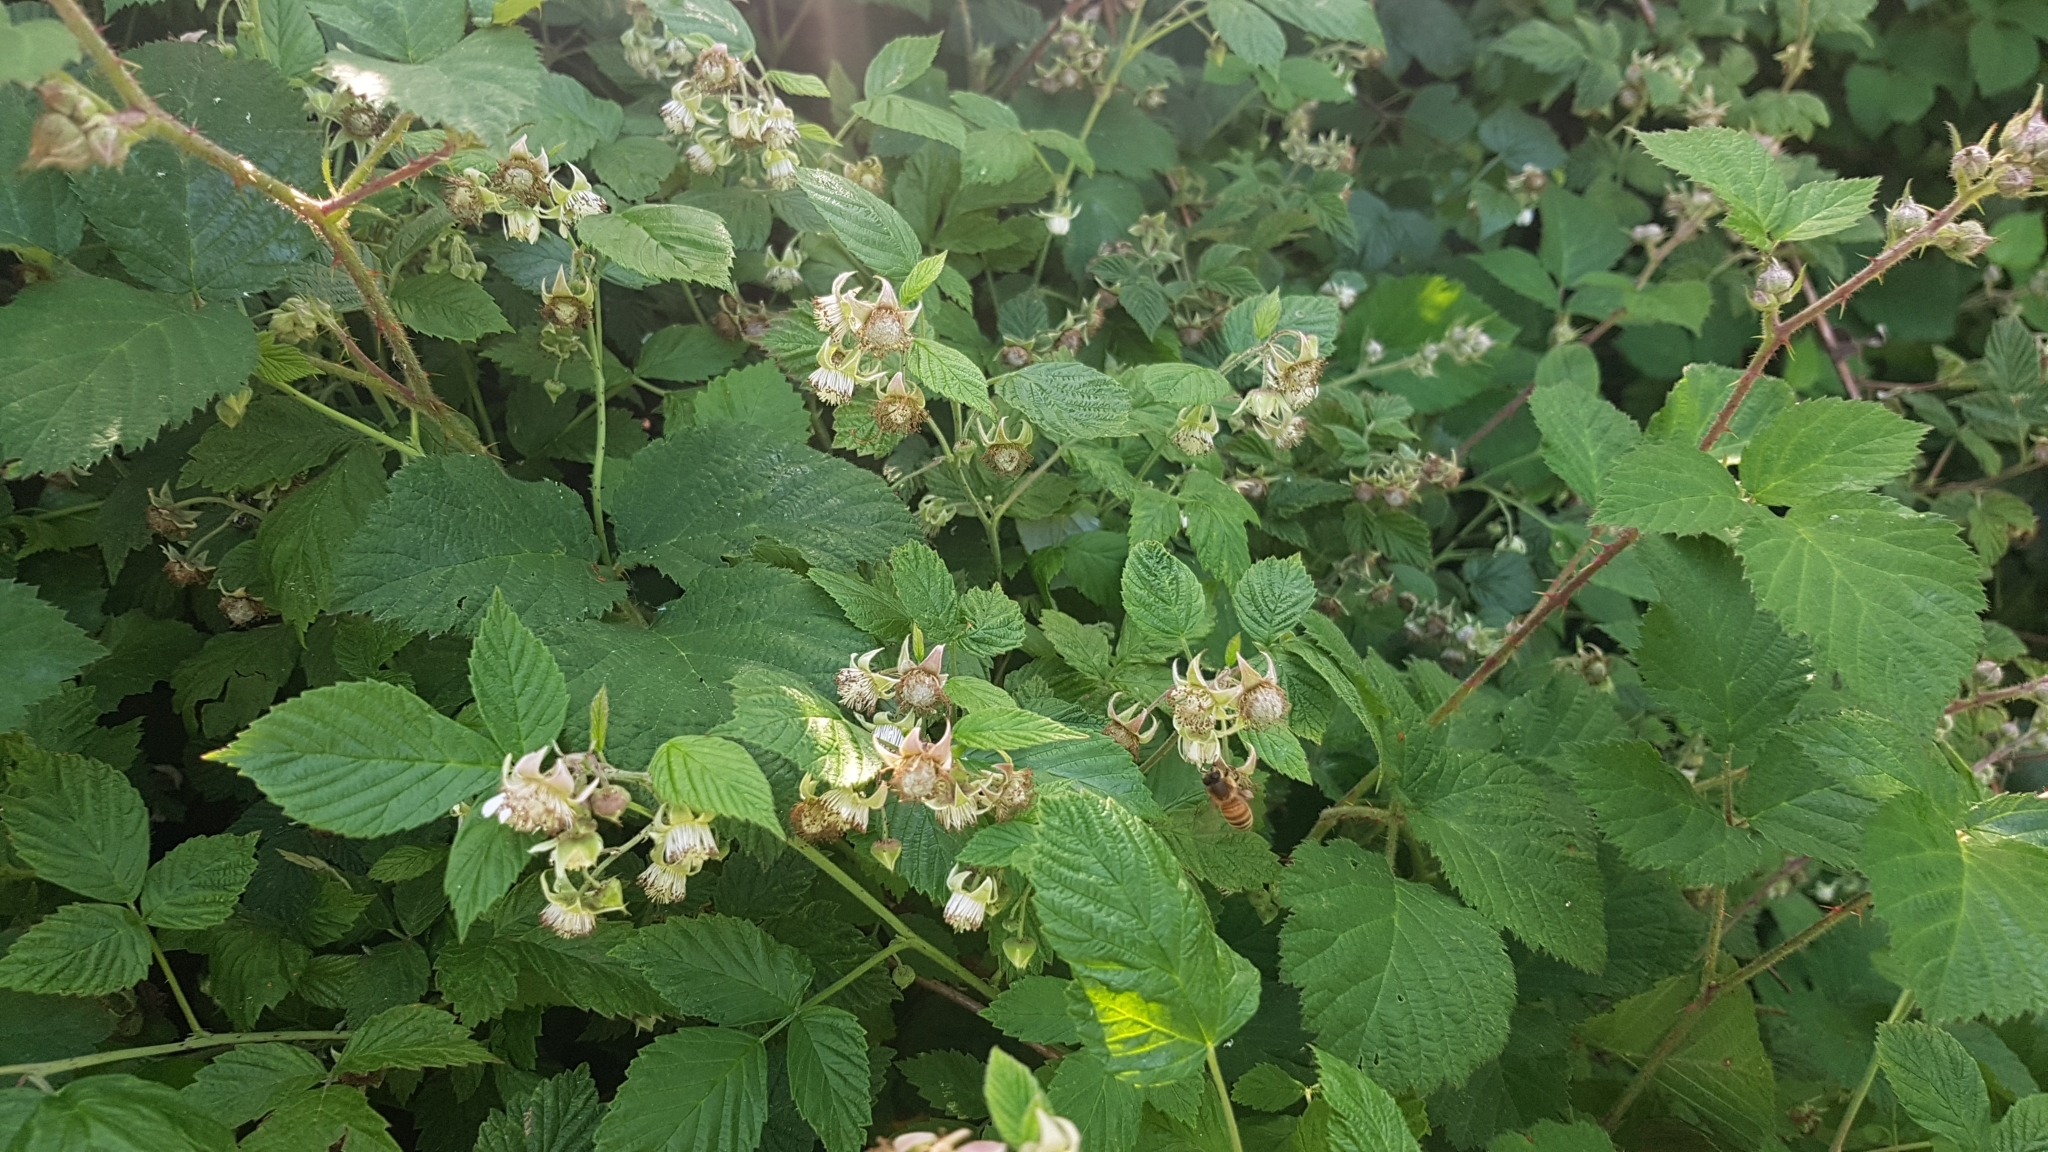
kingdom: Plantae
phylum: Tracheophyta
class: Magnoliopsida
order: Rosales
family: Rosaceae
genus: Rubus
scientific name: Rubus idaeus
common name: Raspberry
